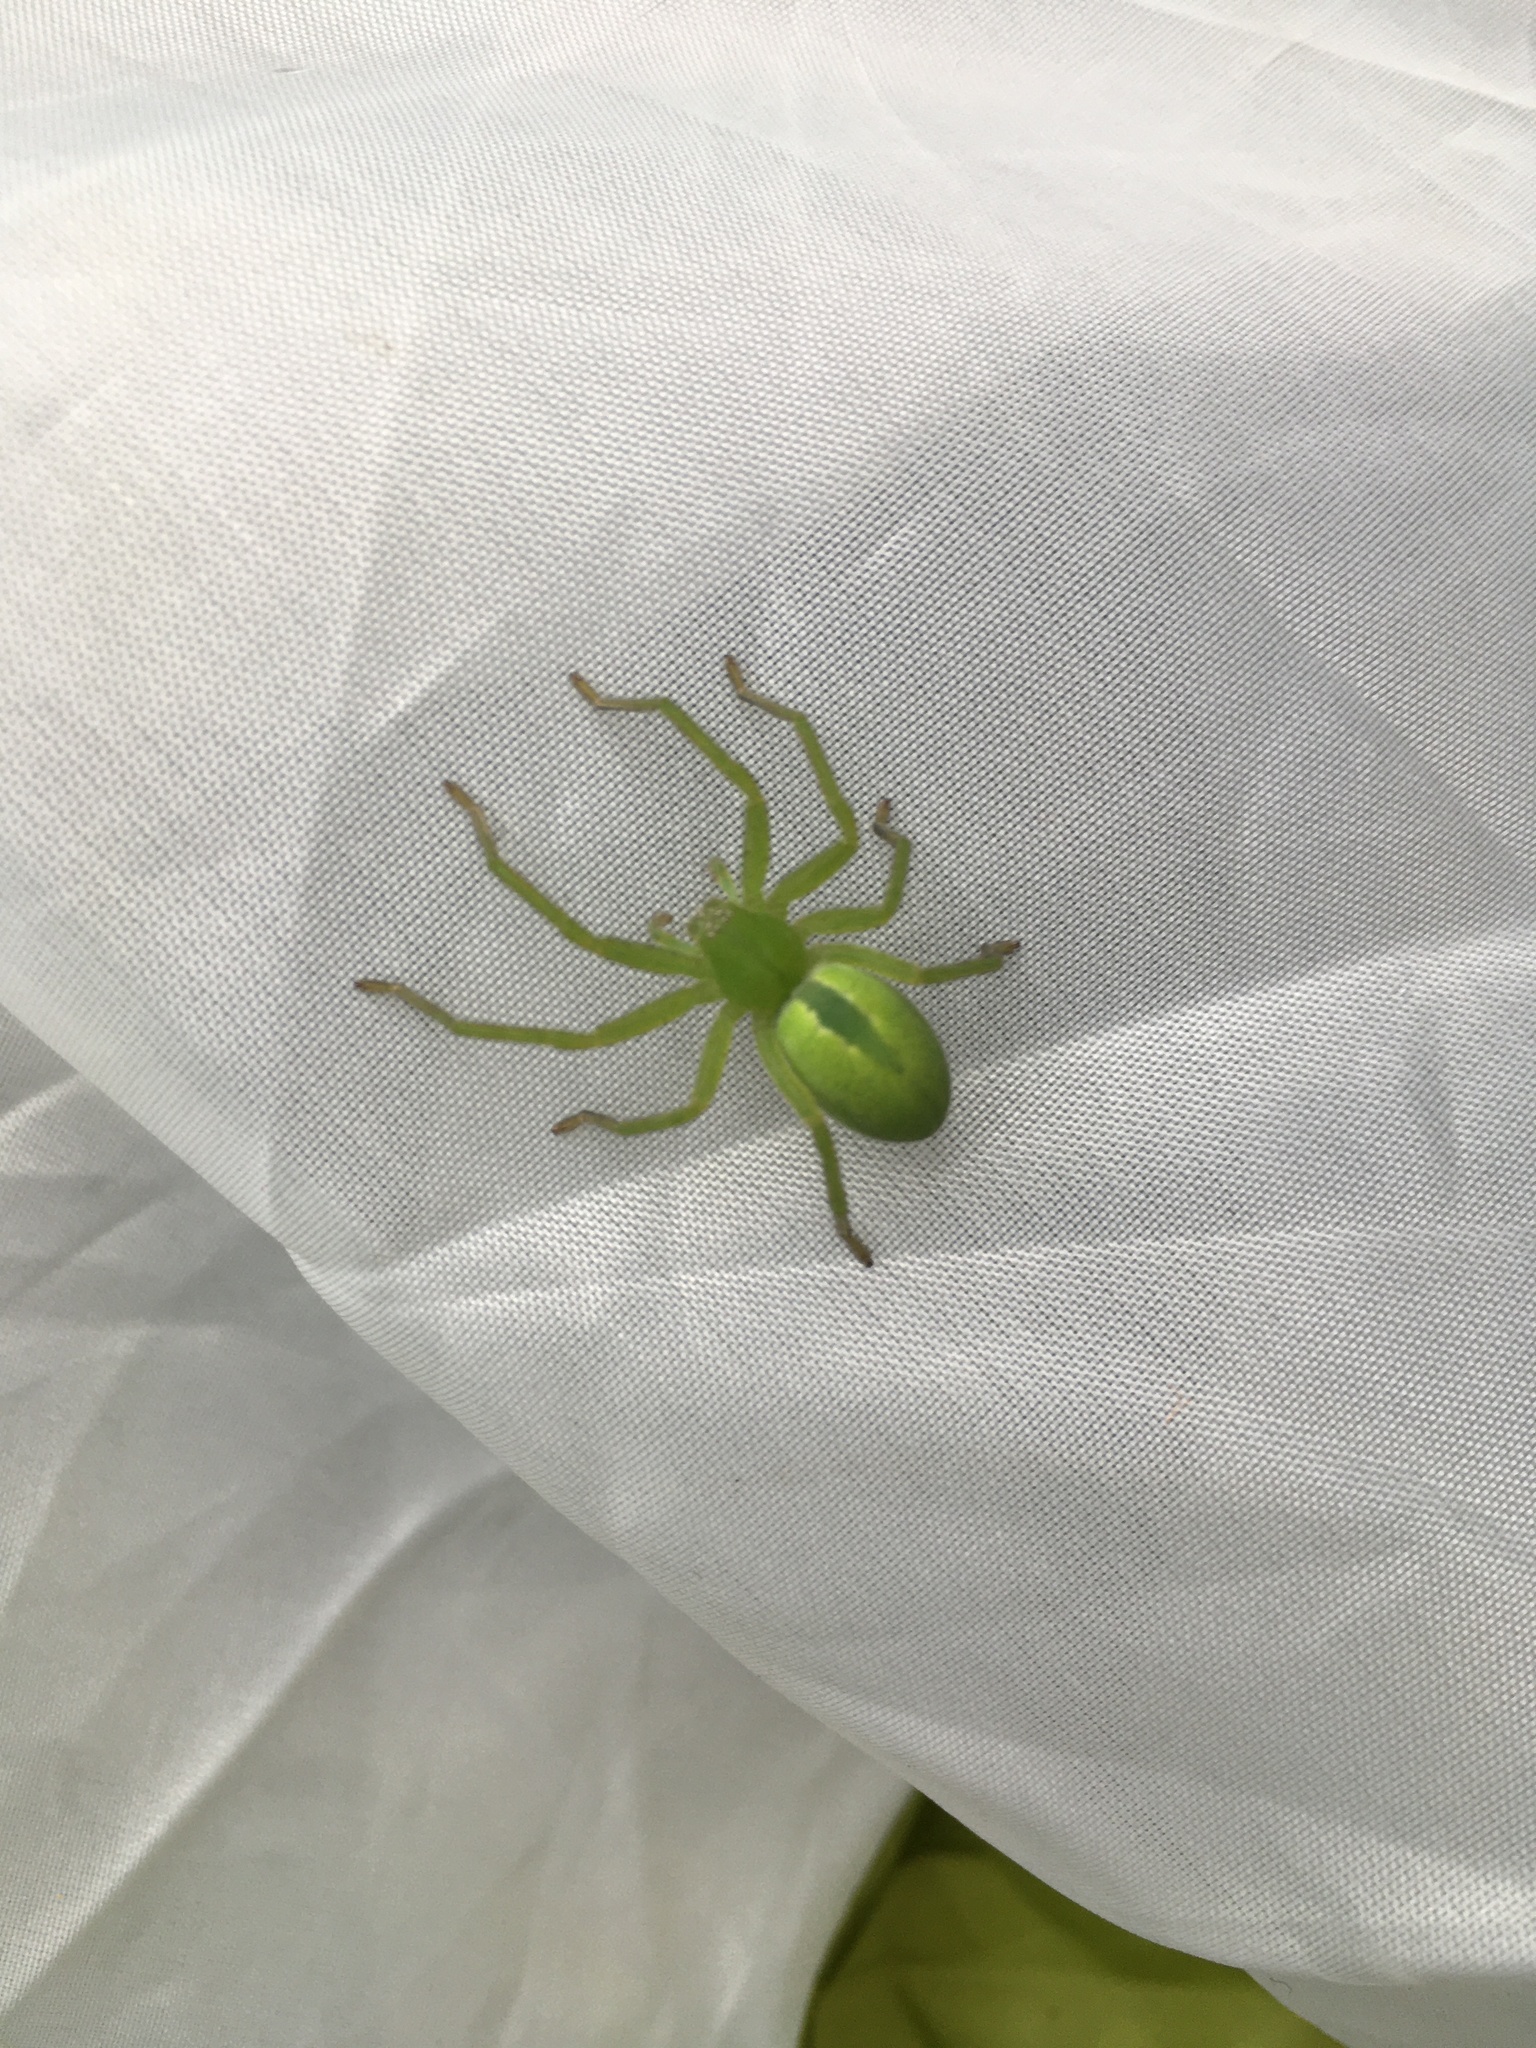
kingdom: Animalia
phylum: Arthropoda
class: Arachnida
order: Araneae
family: Sparassidae
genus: Micrommata
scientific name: Micrommata virescens
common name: Green spider
